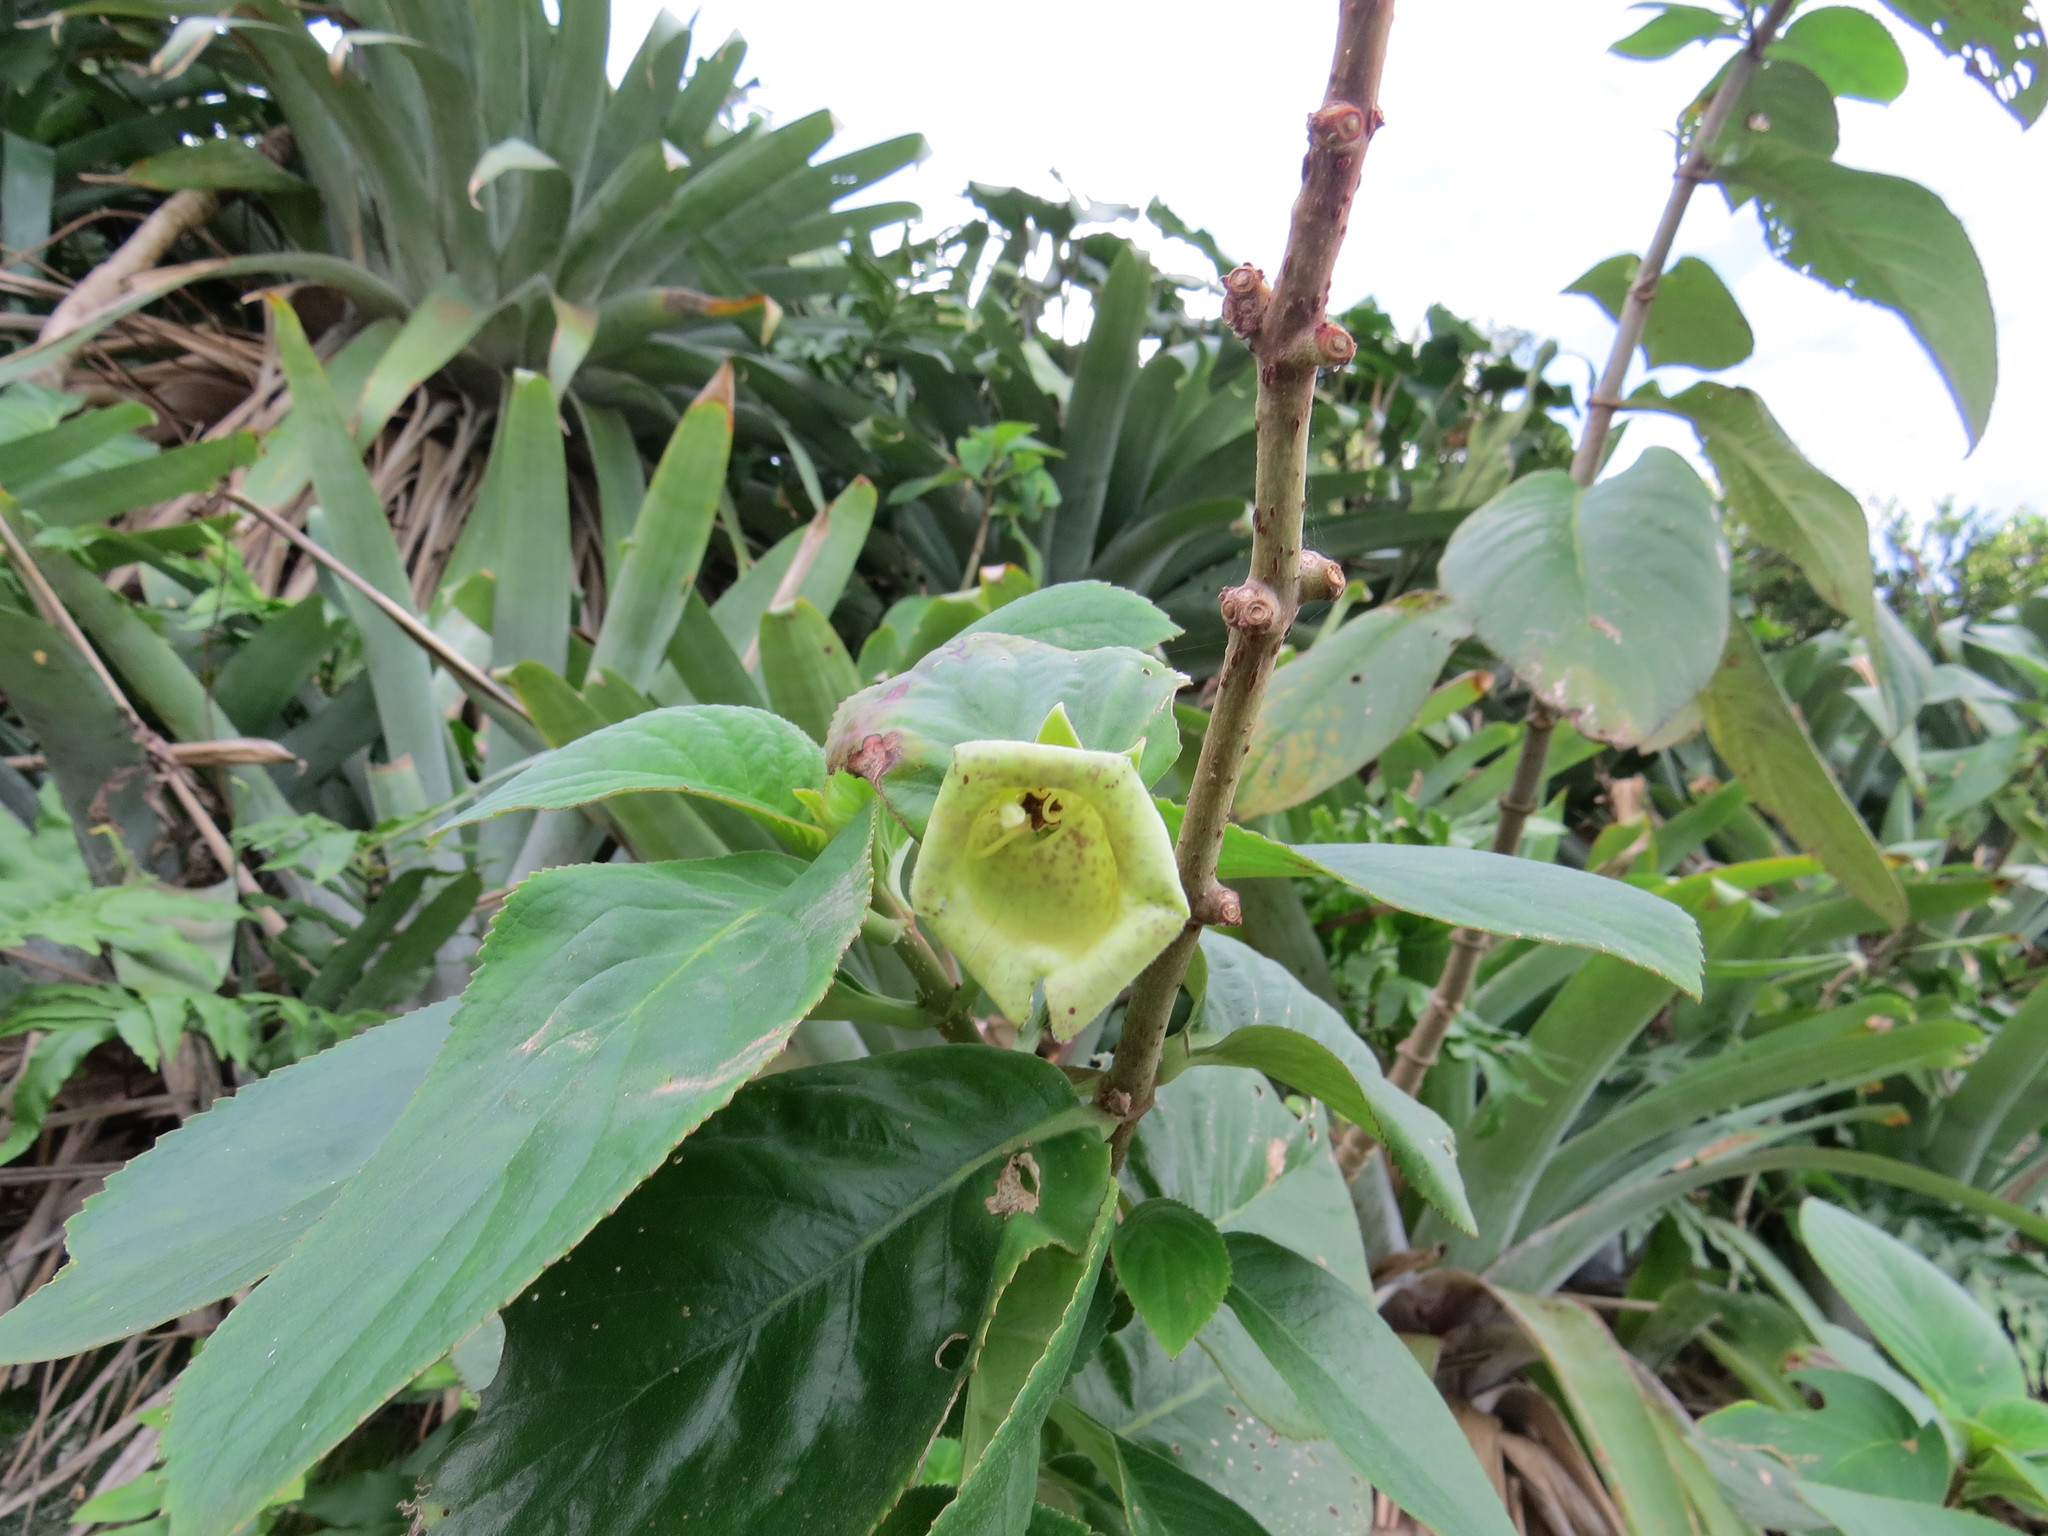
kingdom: Plantae
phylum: Tracheophyta
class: Magnoliopsida
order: Lamiales
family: Gesneriaceae
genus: Paliavana
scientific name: Paliavana prasinata
